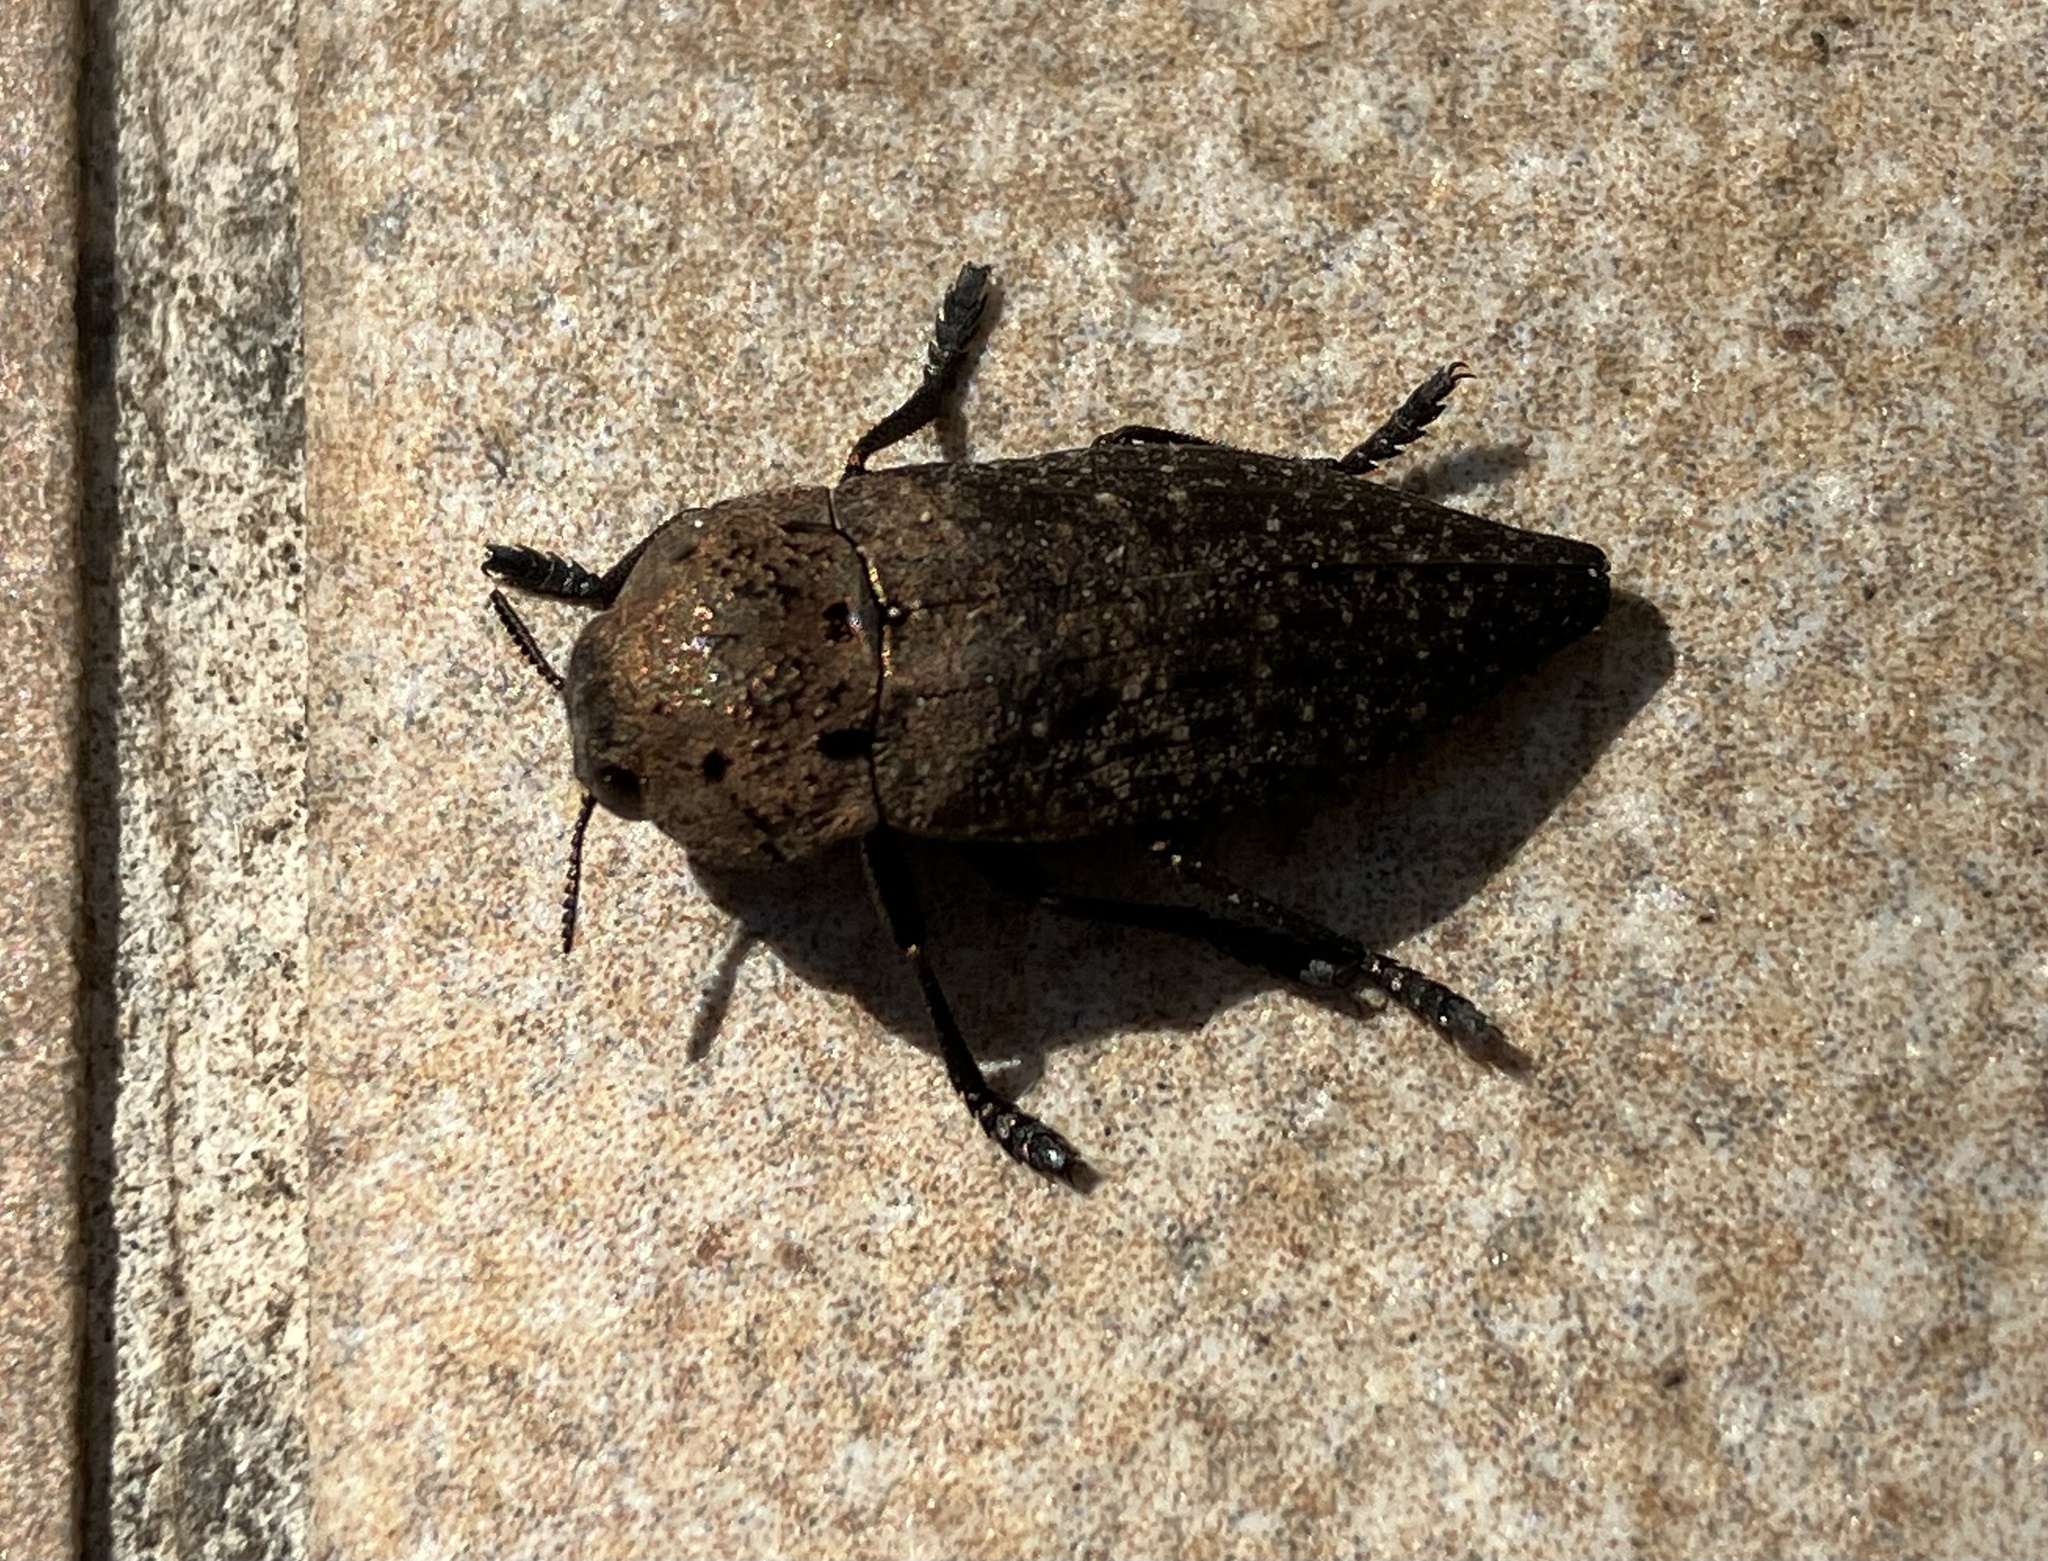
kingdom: Animalia
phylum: Arthropoda
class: Insecta
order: Coleoptera
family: Buprestidae
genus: Capnodis
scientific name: Capnodis tenebricosa
